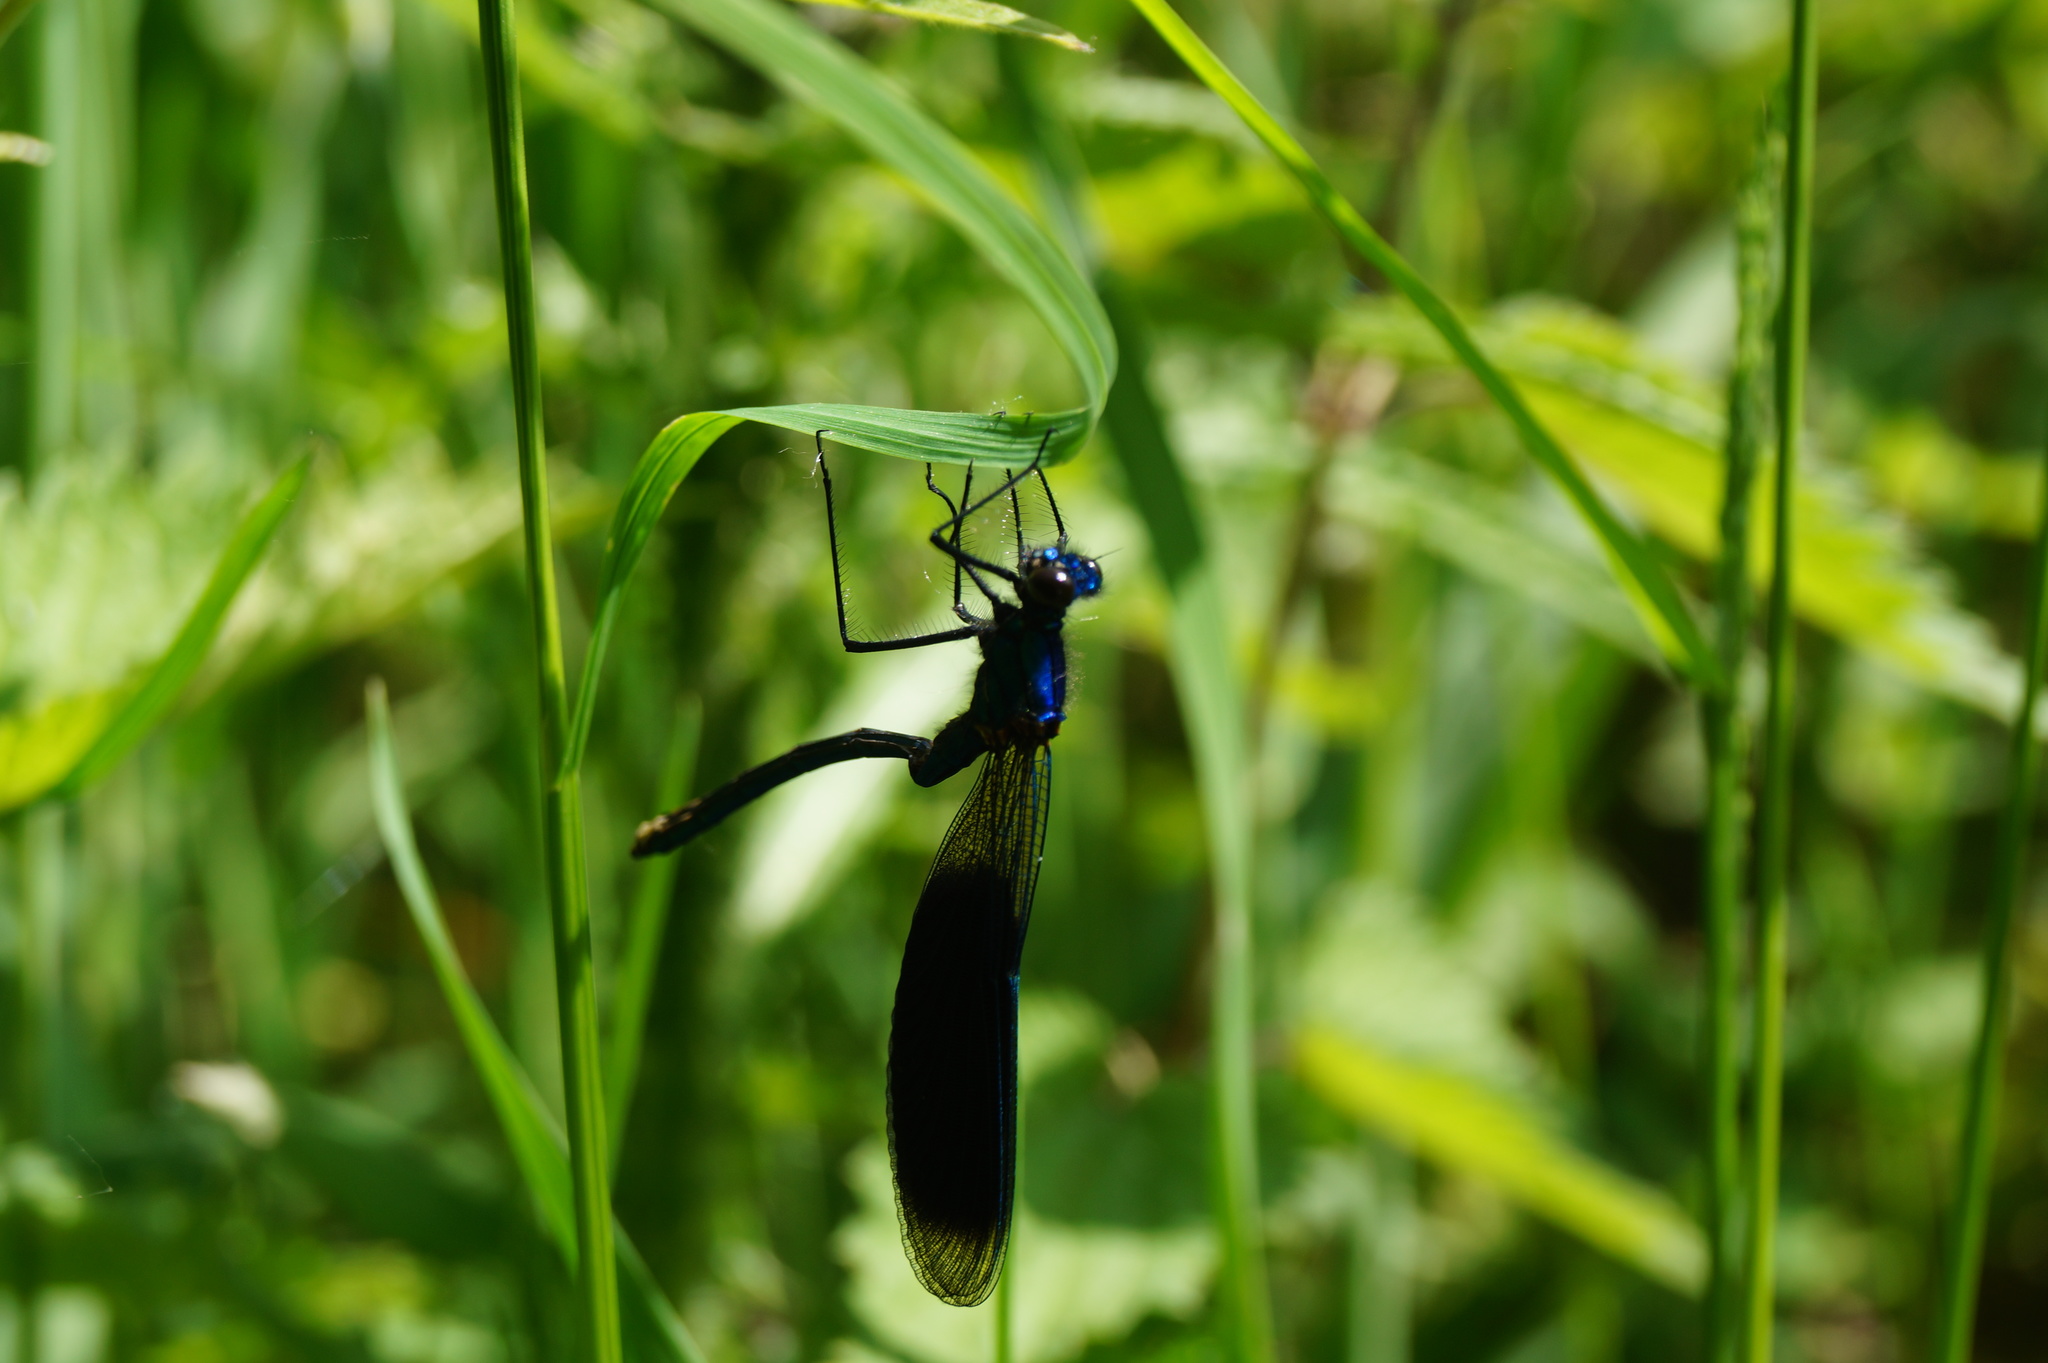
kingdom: Animalia
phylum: Arthropoda
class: Insecta
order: Odonata
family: Calopterygidae
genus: Calopteryx
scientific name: Calopteryx splendens
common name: Banded demoiselle
